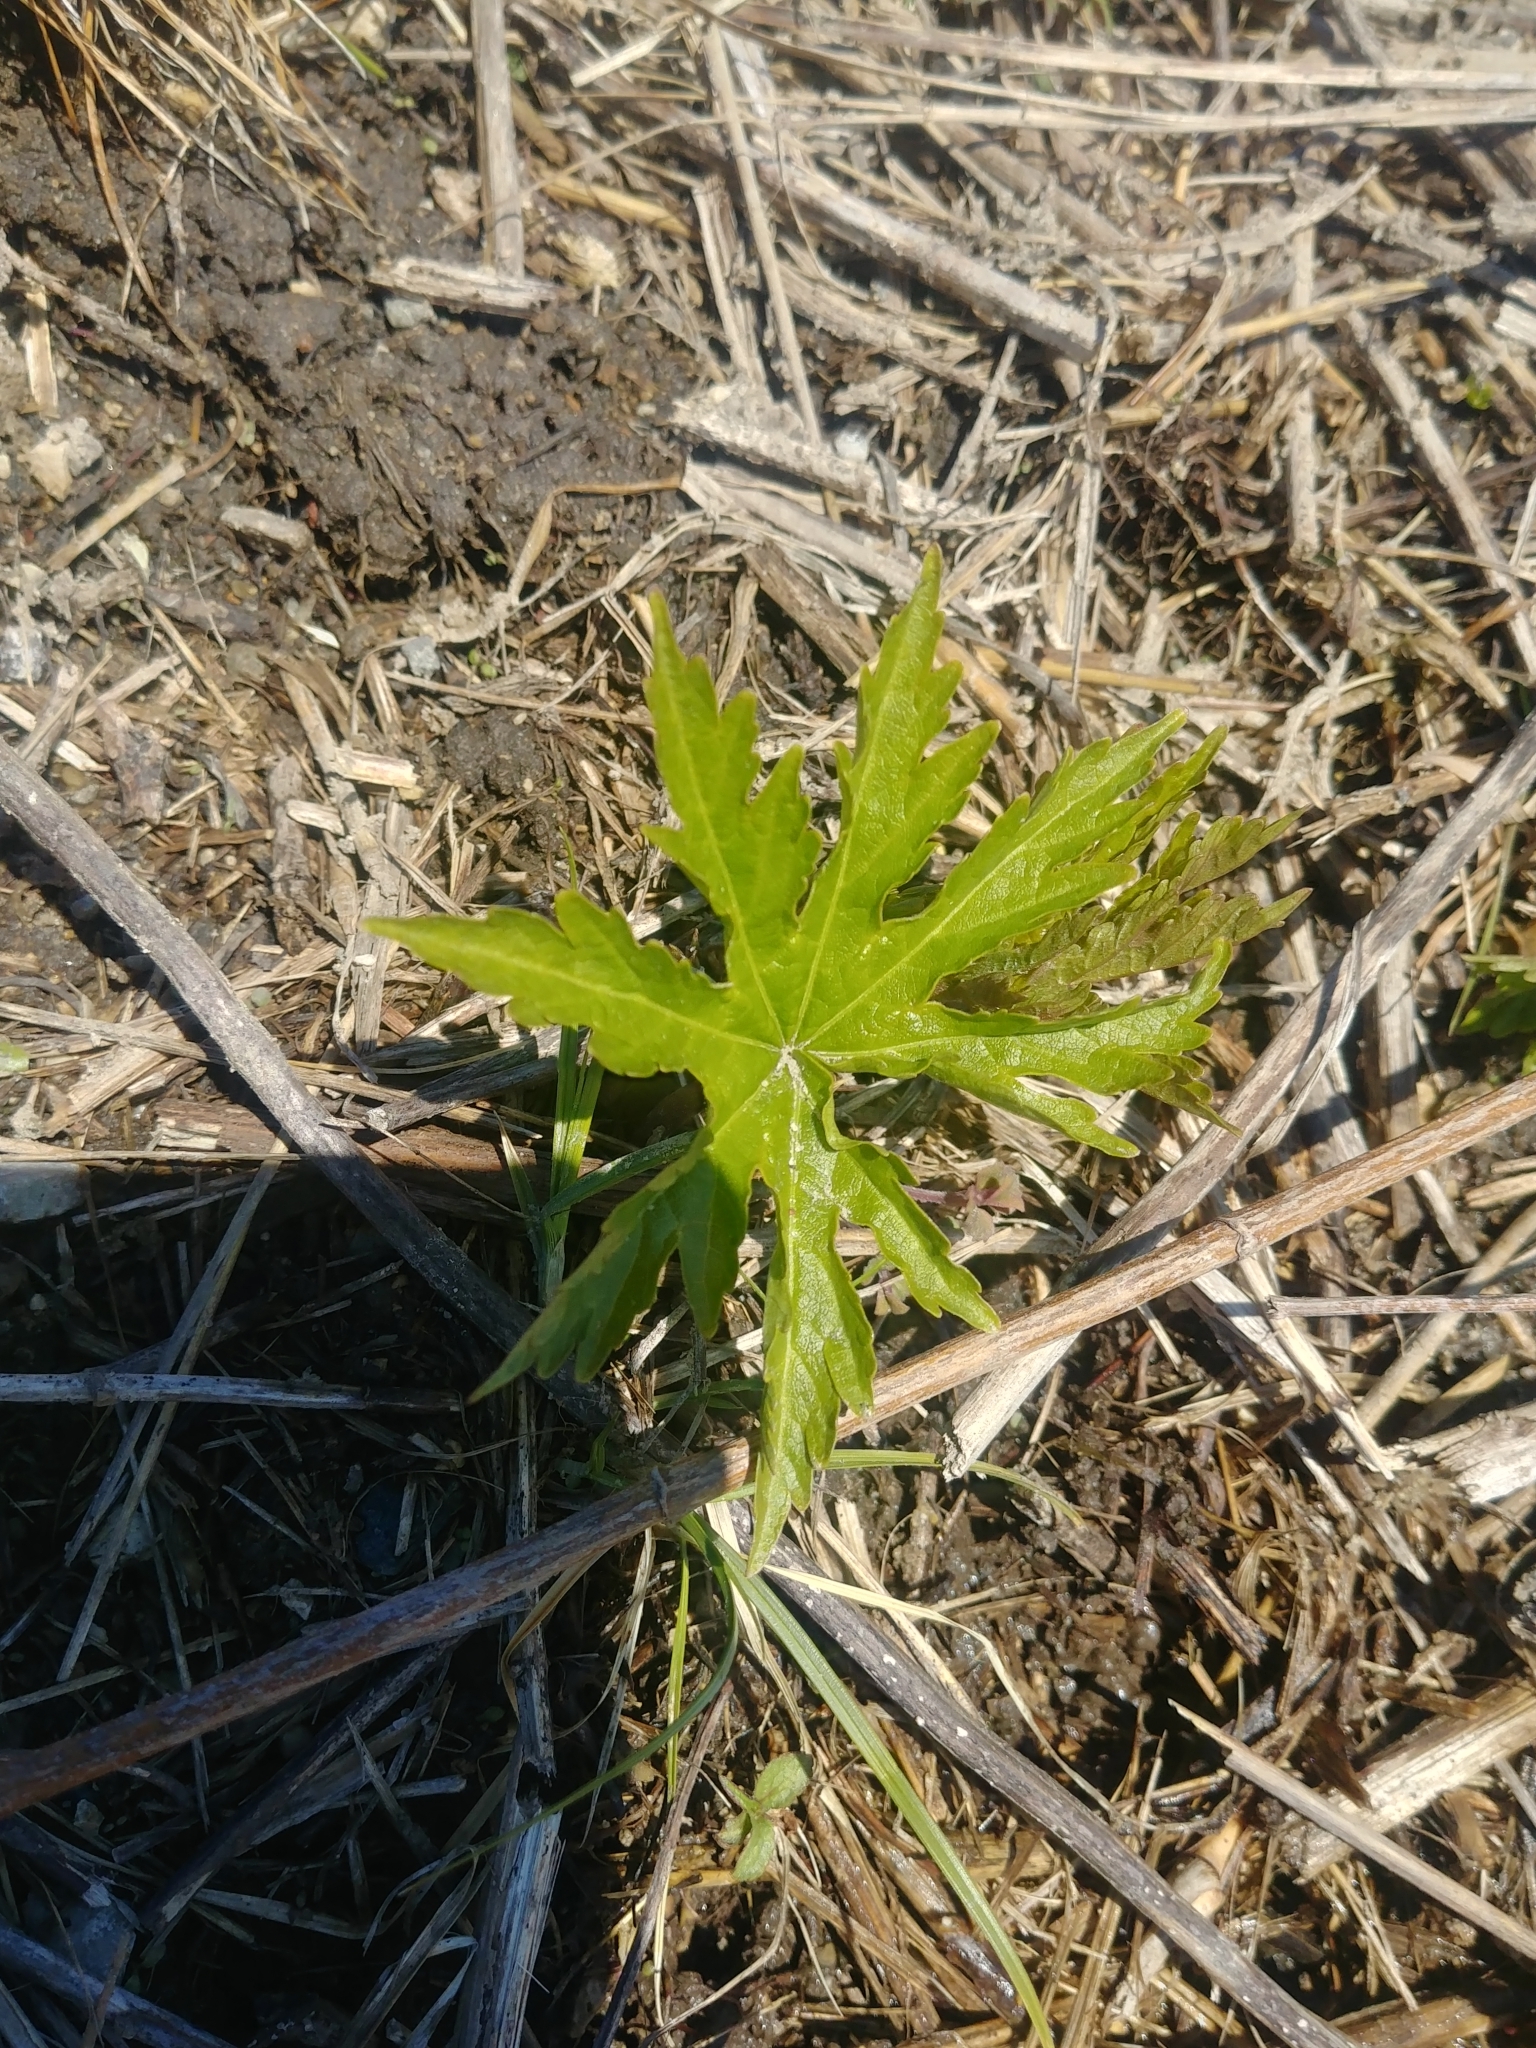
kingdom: Plantae
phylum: Tracheophyta
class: Magnoliopsida
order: Malvales
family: Malvaceae
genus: Napaea
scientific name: Napaea dioica
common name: Glade-mallow
